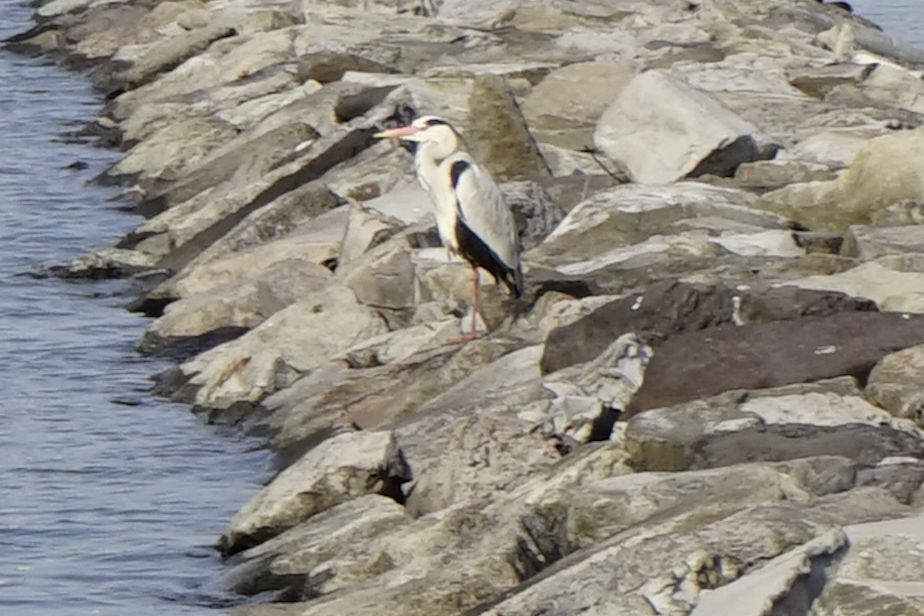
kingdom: Animalia
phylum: Chordata
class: Aves
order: Pelecaniformes
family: Ardeidae
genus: Ardea
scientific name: Ardea cinerea
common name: Grey heron
